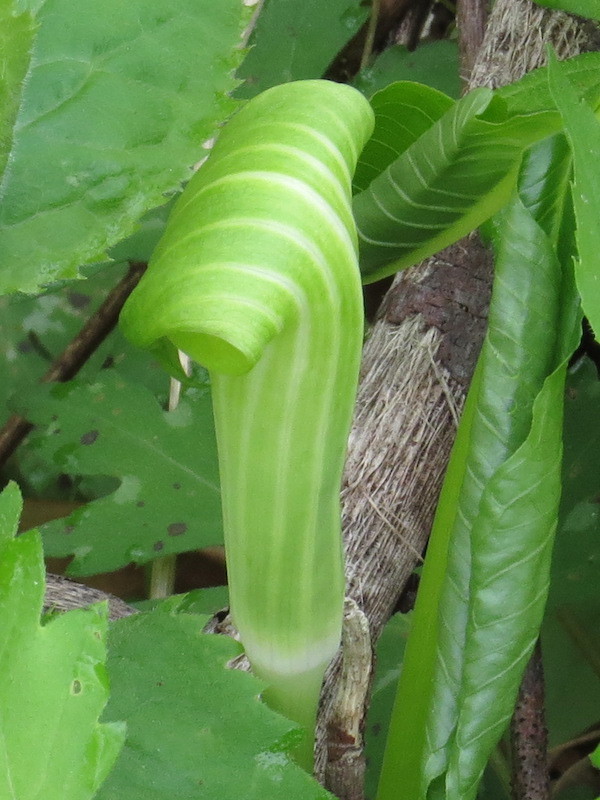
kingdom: Plantae
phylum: Tracheophyta
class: Liliopsida
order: Alismatales
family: Araceae
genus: Arisaema
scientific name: Arisaema triphyllum
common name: Jack-in-the-pulpit
